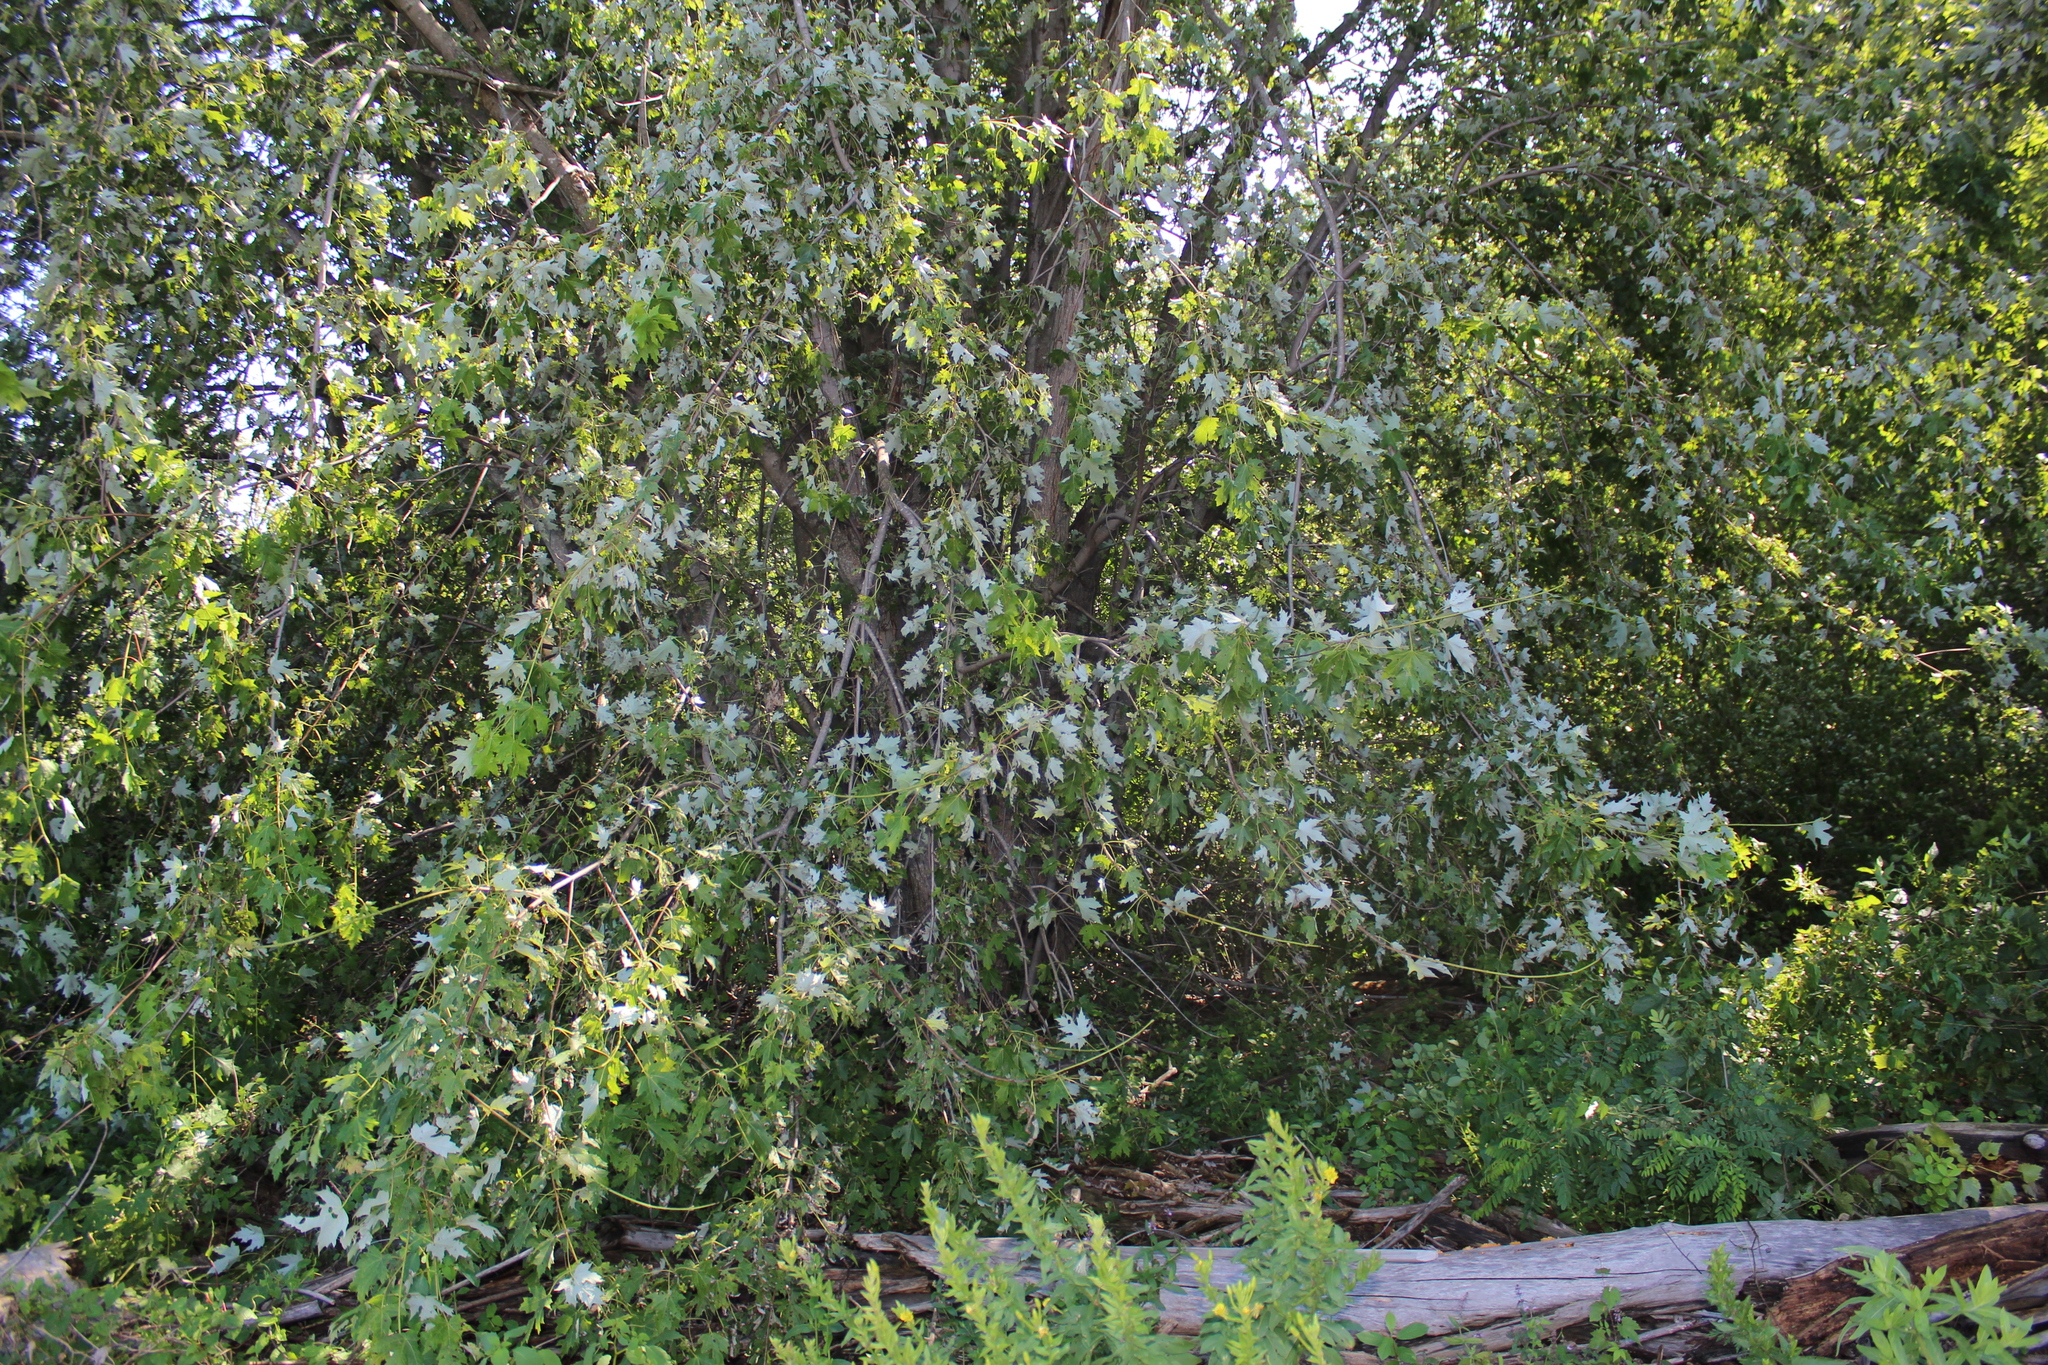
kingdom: Plantae
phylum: Tracheophyta
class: Magnoliopsida
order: Sapindales
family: Sapindaceae
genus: Acer
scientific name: Acer saccharinum
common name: Silver maple
